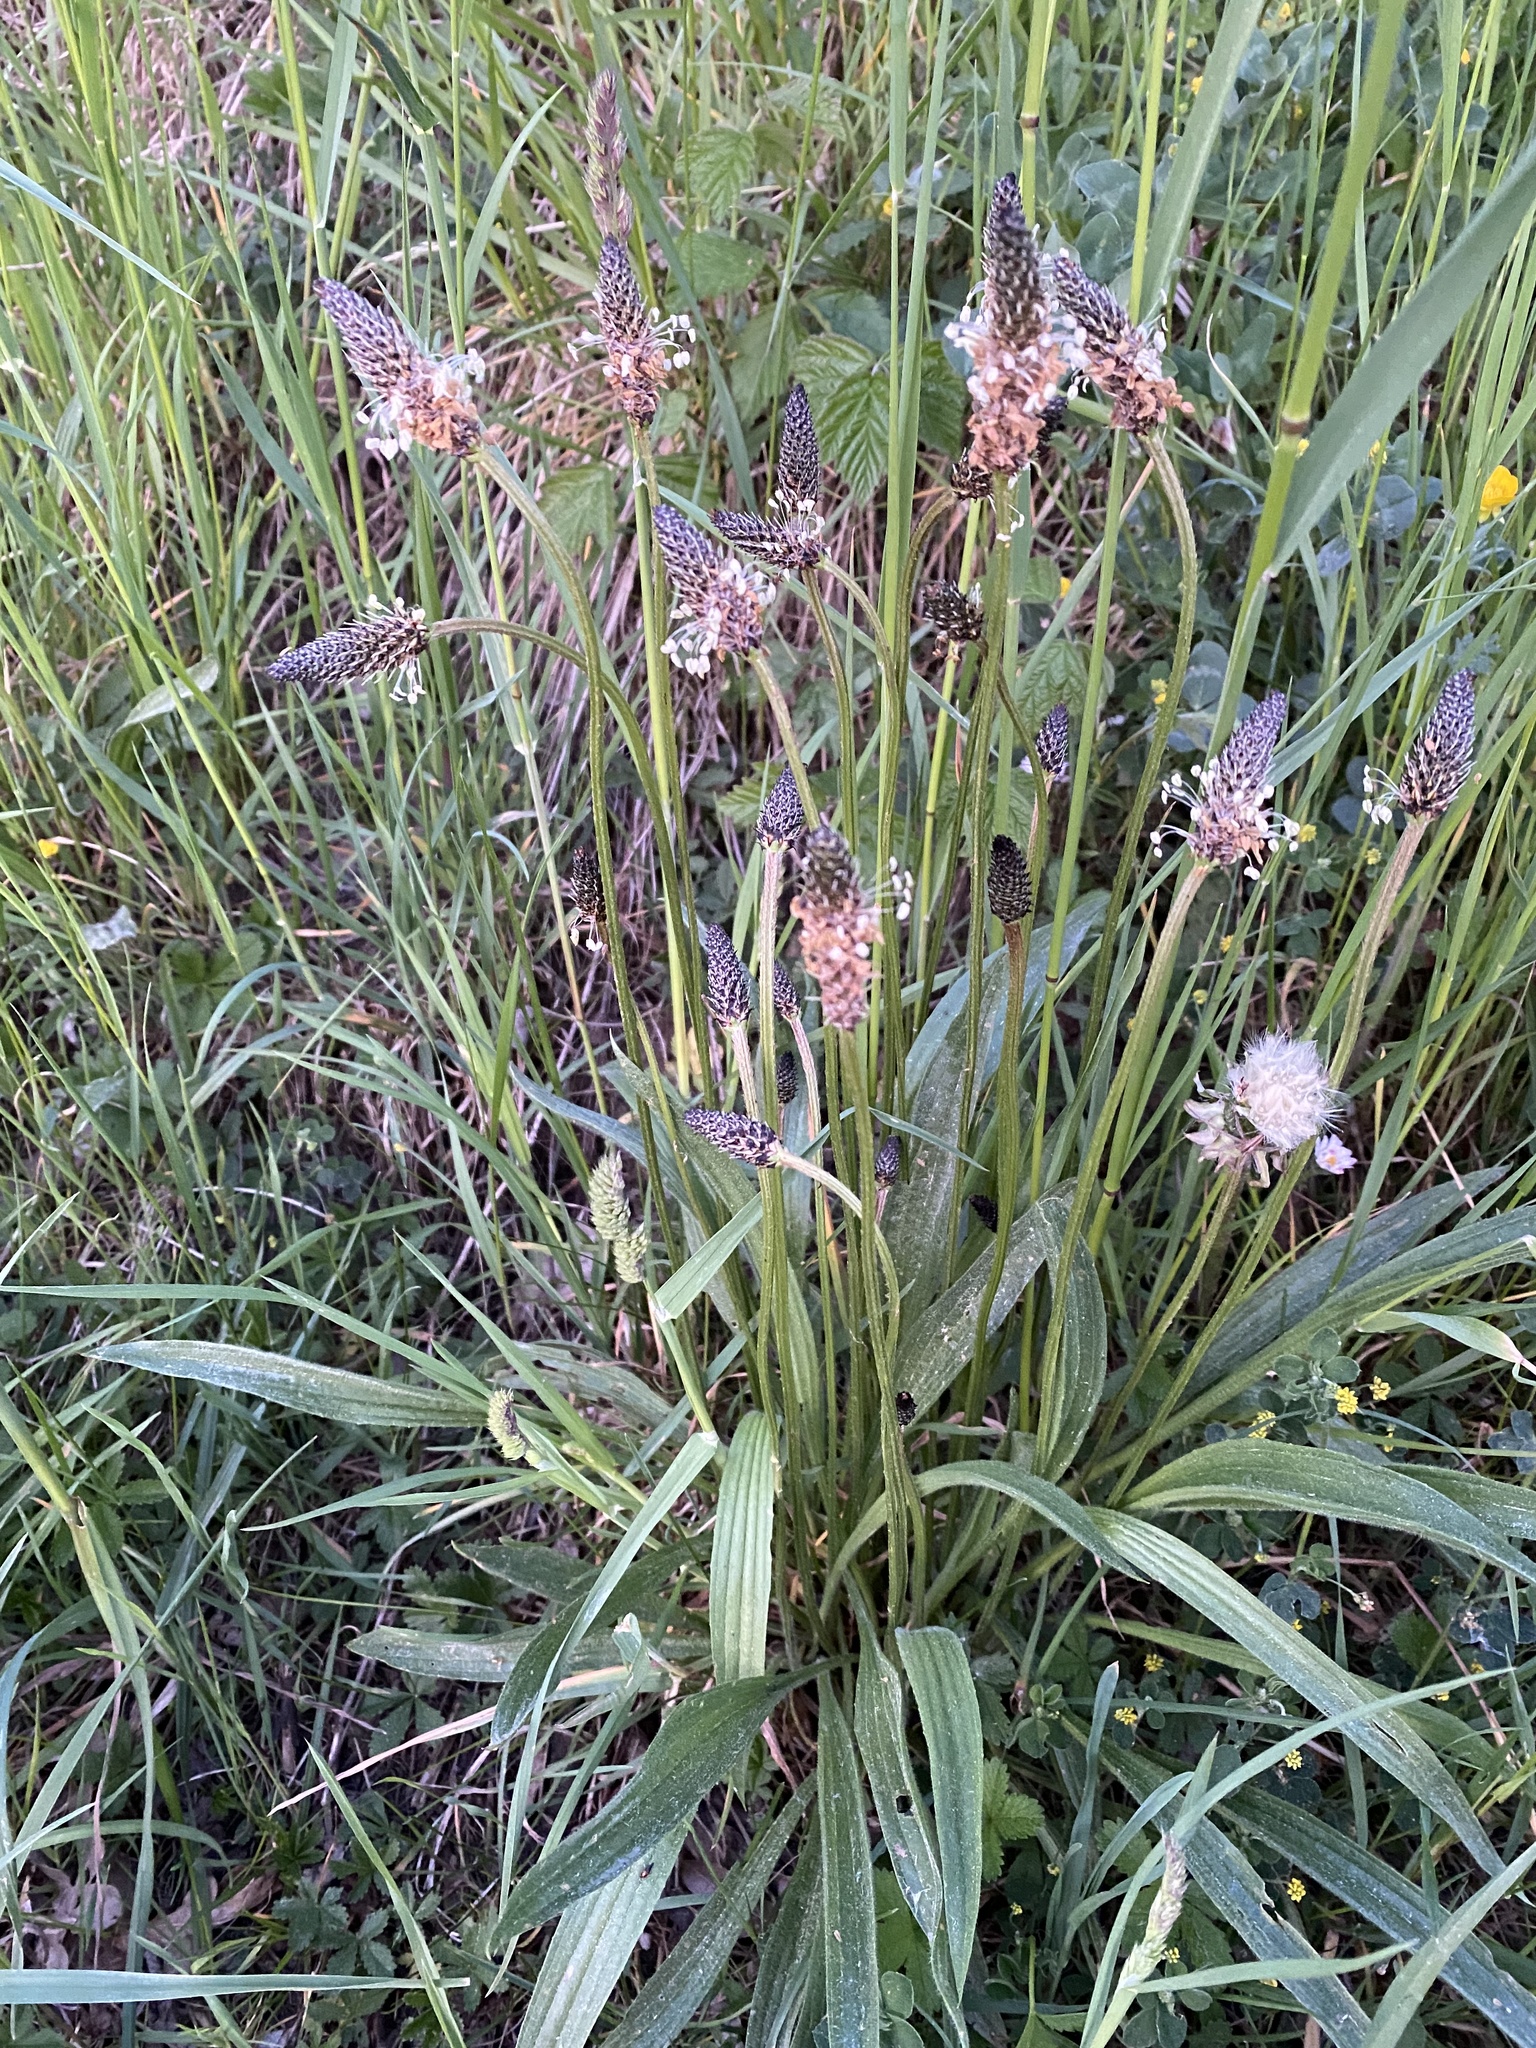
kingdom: Plantae
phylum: Tracheophyta
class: Magnoliopsida
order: Lamiales
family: Plantaginaceae
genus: Plantago
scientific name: Plantago lanceolata
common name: Ribwort plantain
